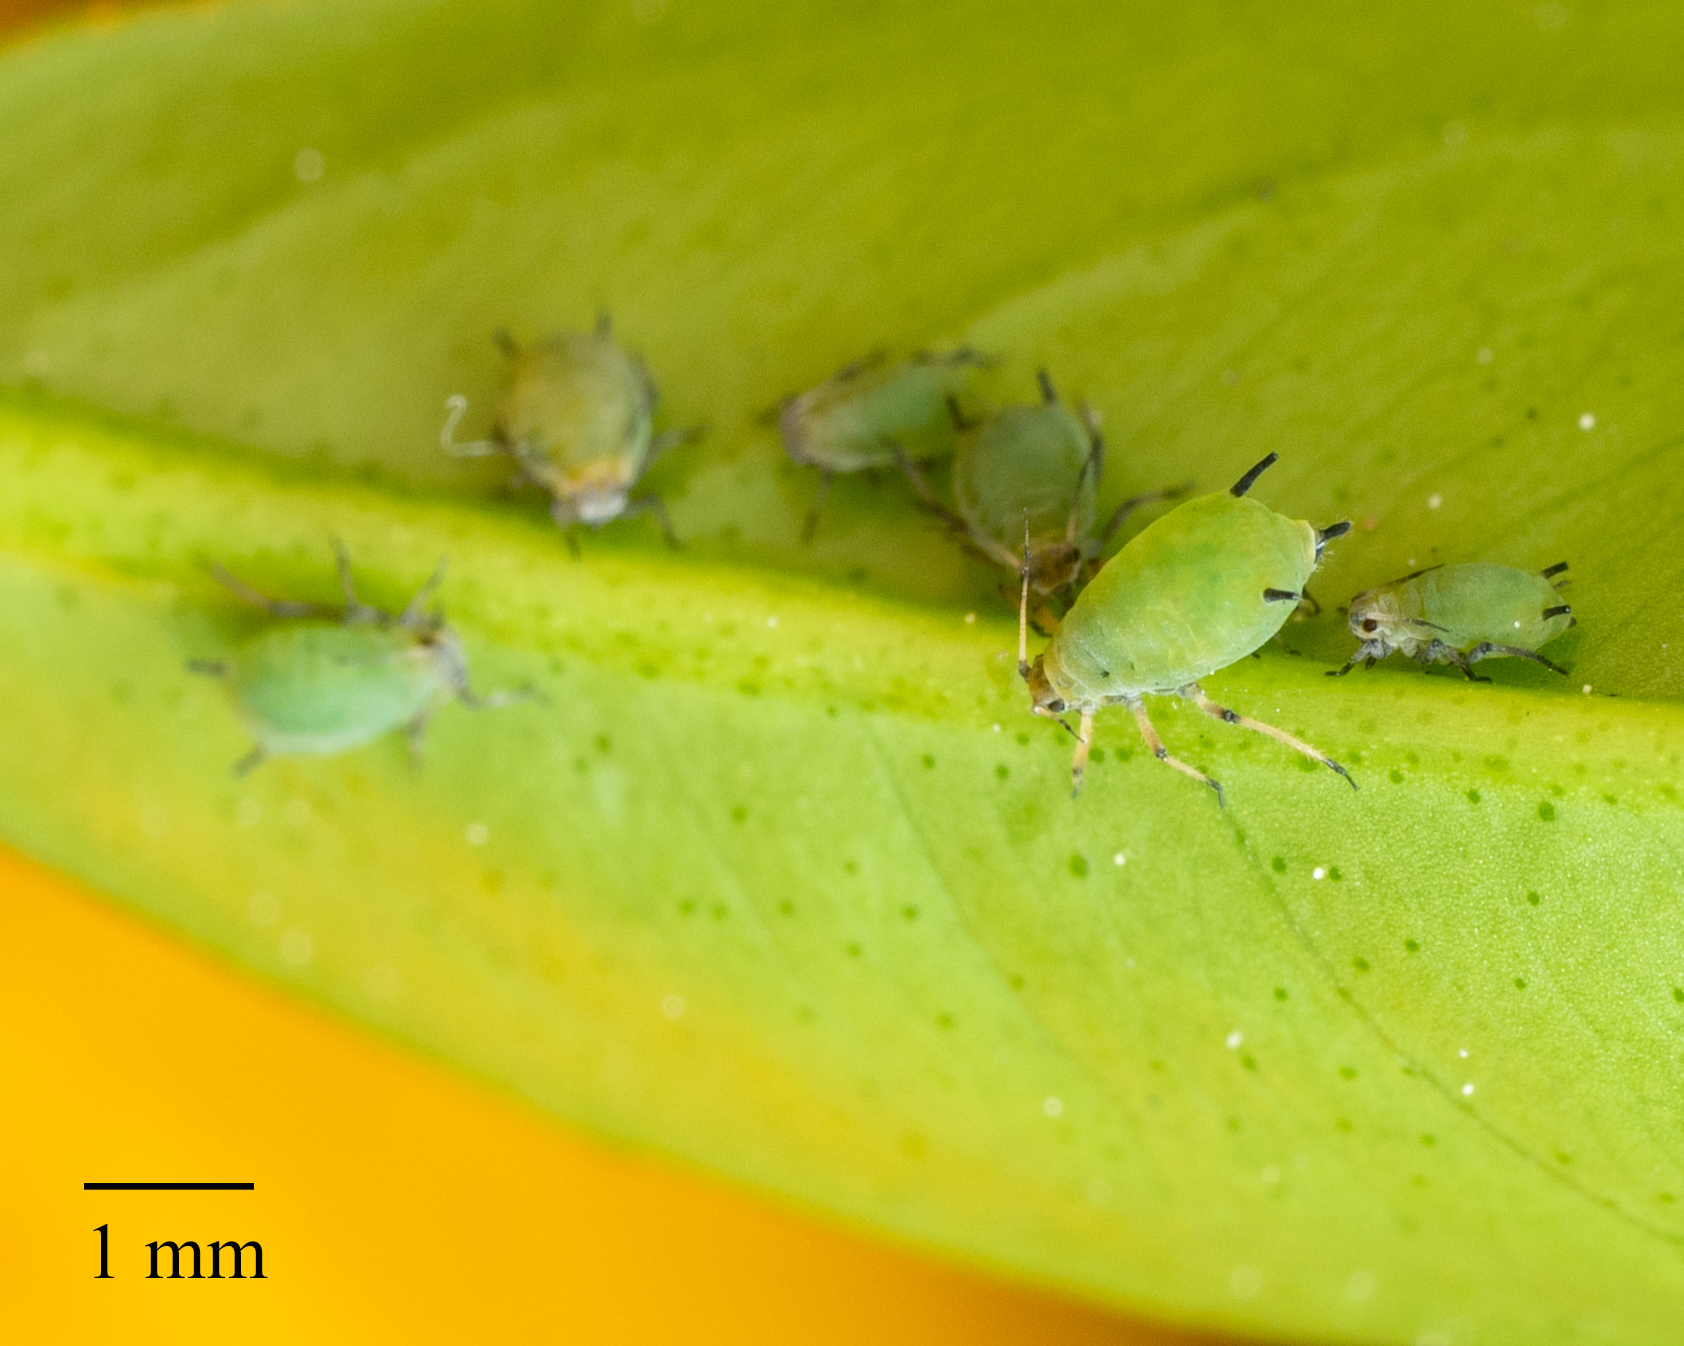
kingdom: Animalia
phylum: Arthropoda
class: Insecta
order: Hemiptera
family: Aphididae
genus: Aphis
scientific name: Aphis spiraecola
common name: Spirea aphid
